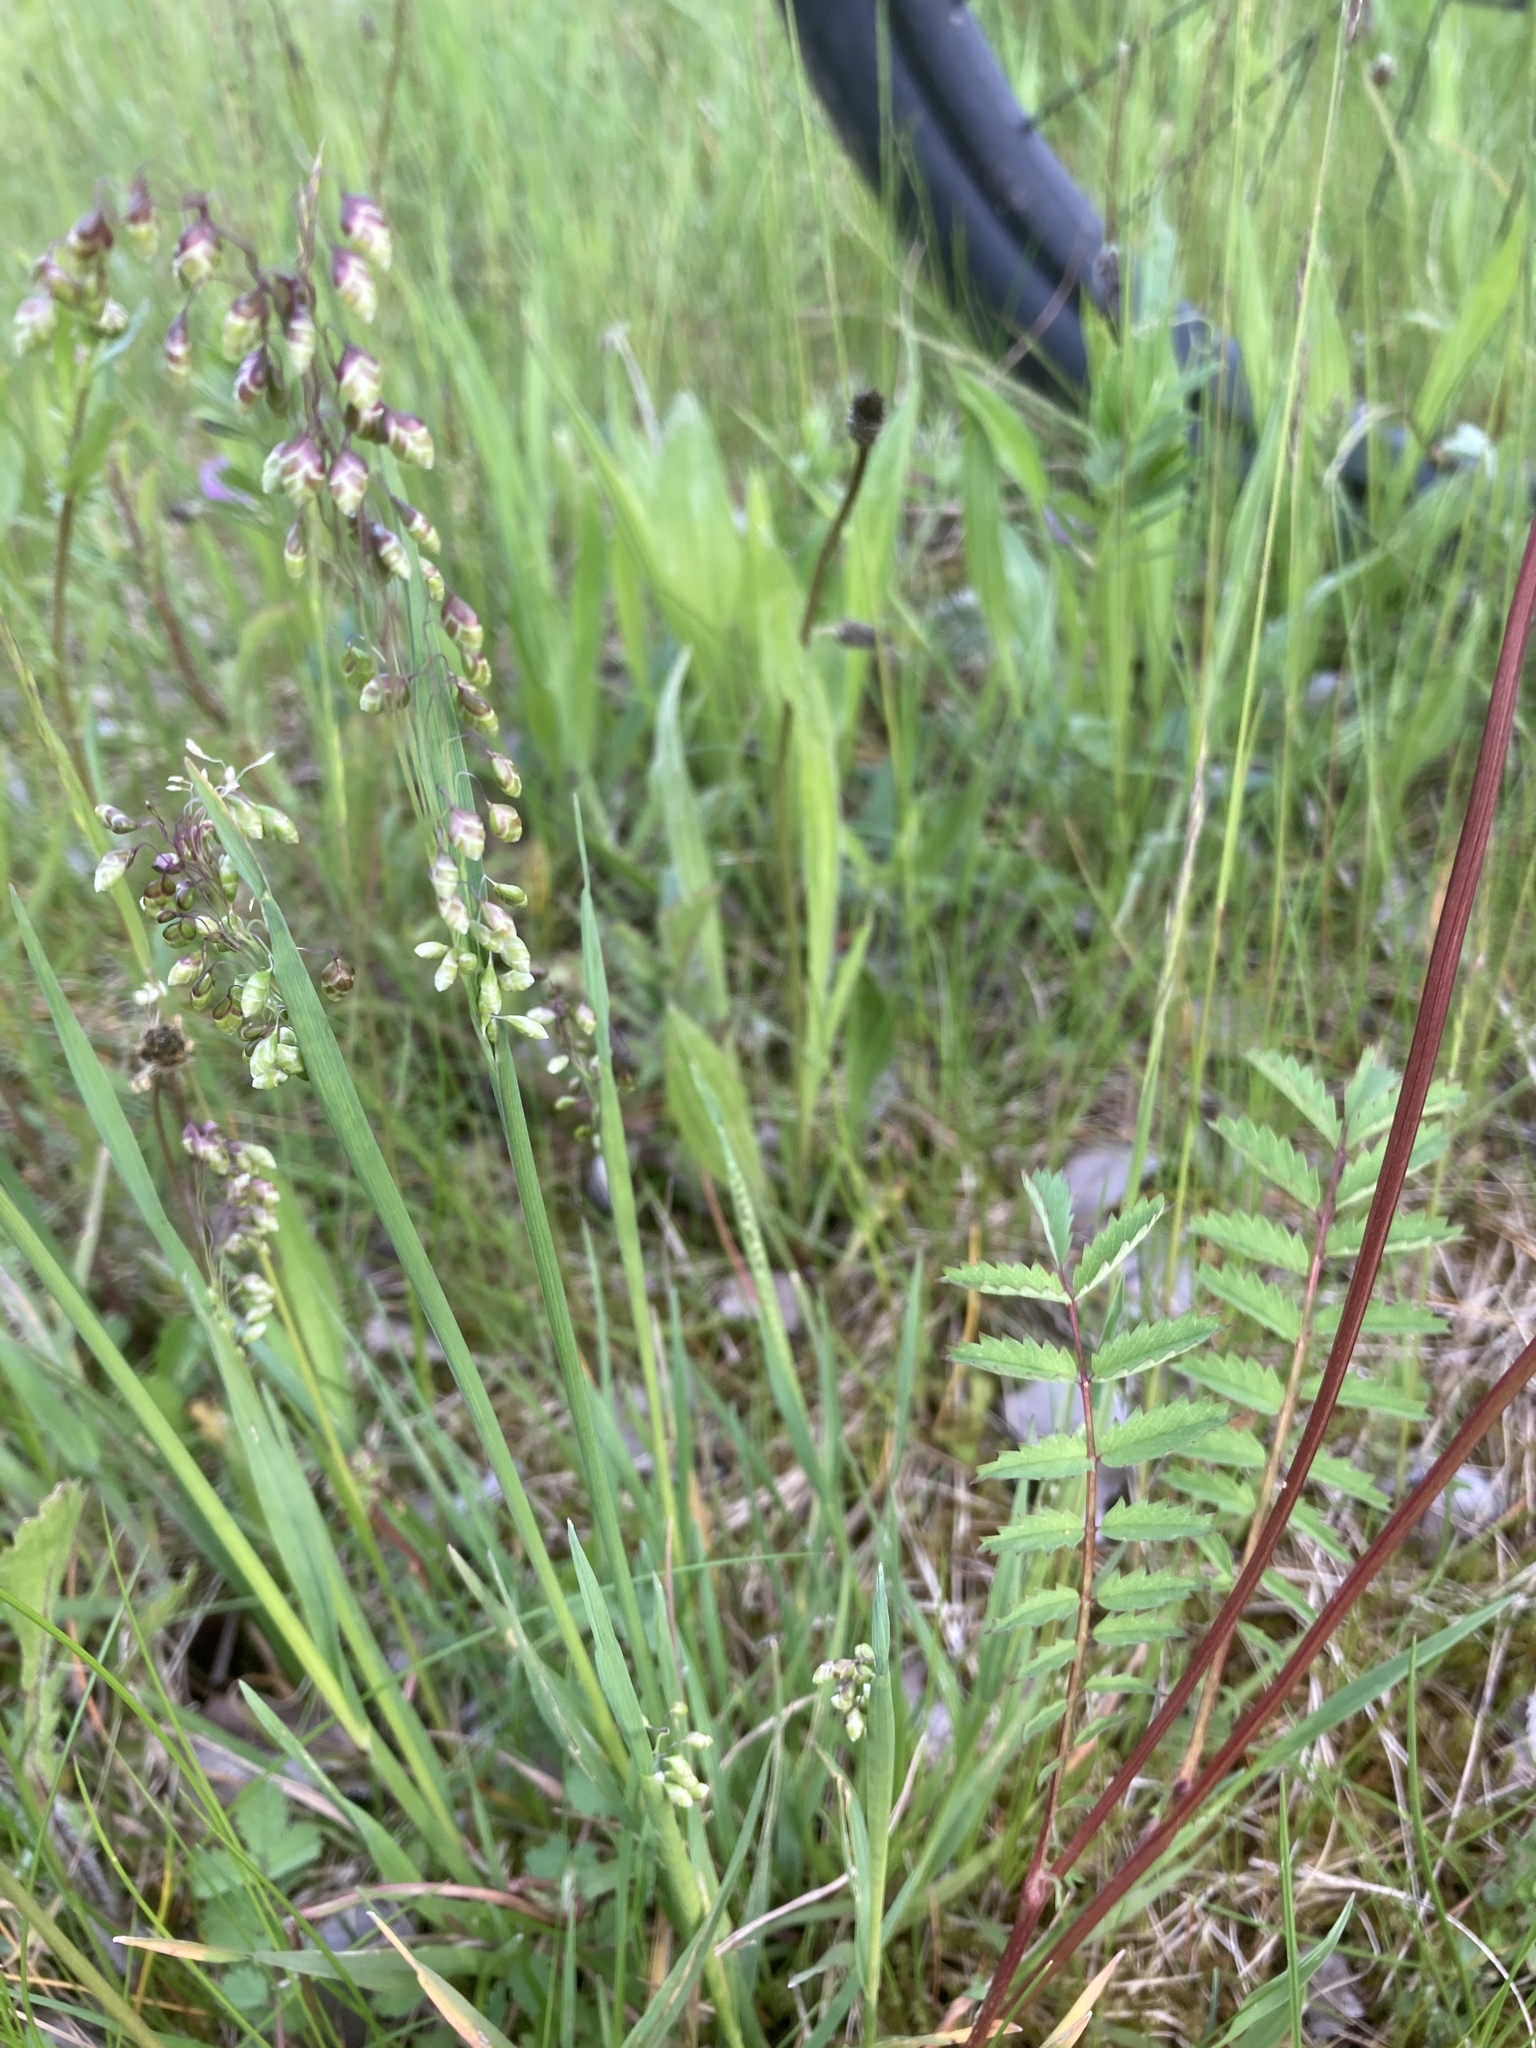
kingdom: Plantae
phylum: Tracheophyta
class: Liliopsida
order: Poales
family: Poaceae
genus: Briza
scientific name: Briza media
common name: Quaking grass
